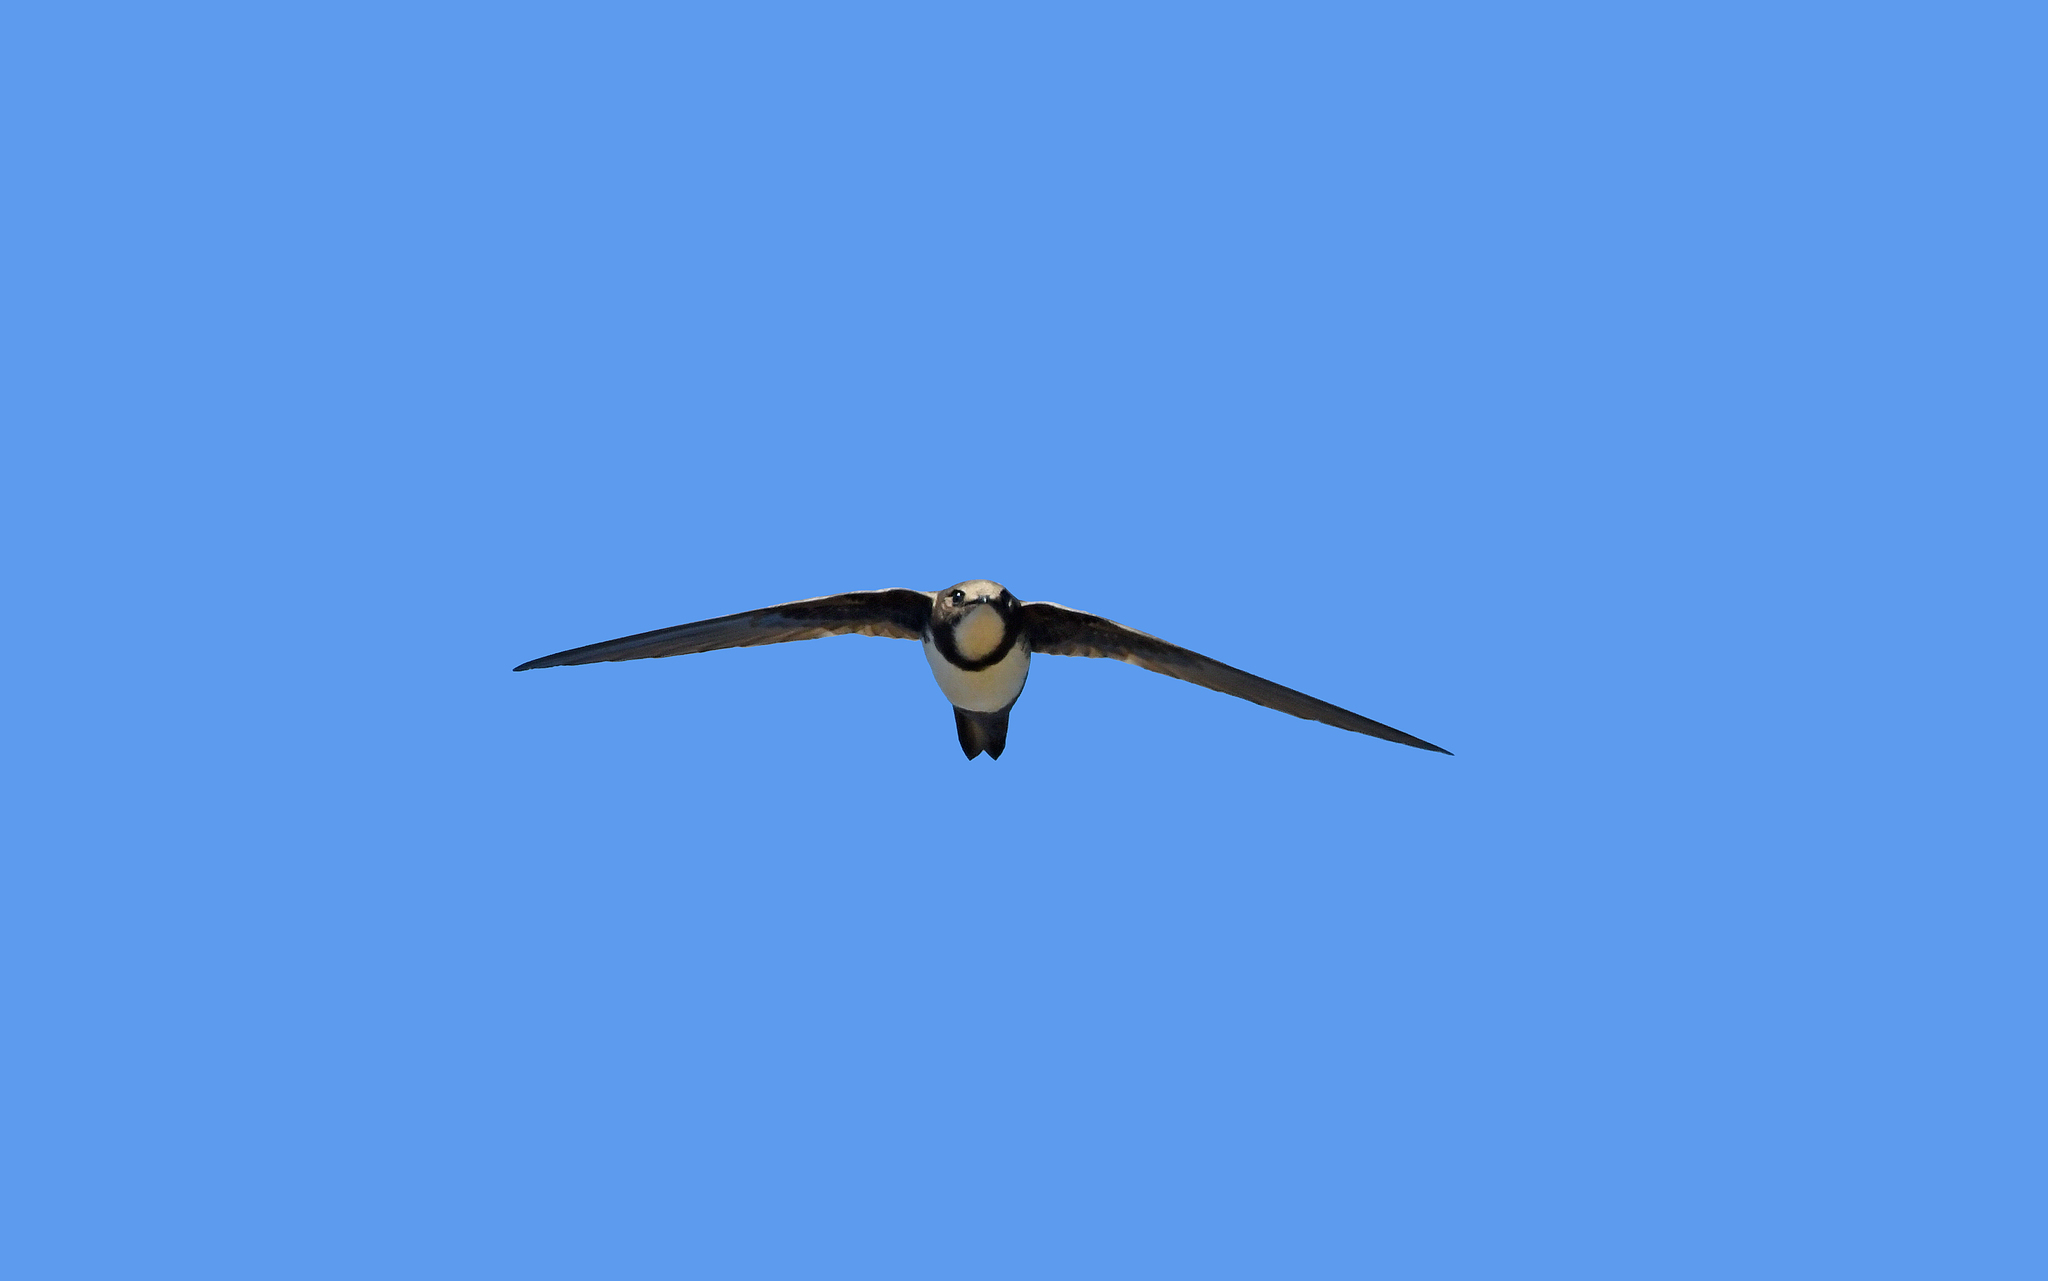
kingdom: Animalia
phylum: Chordata
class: Aves
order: Apodiformes
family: Apodidae
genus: Tachymarptis
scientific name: Tachymarptis melba
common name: Alpine swift
